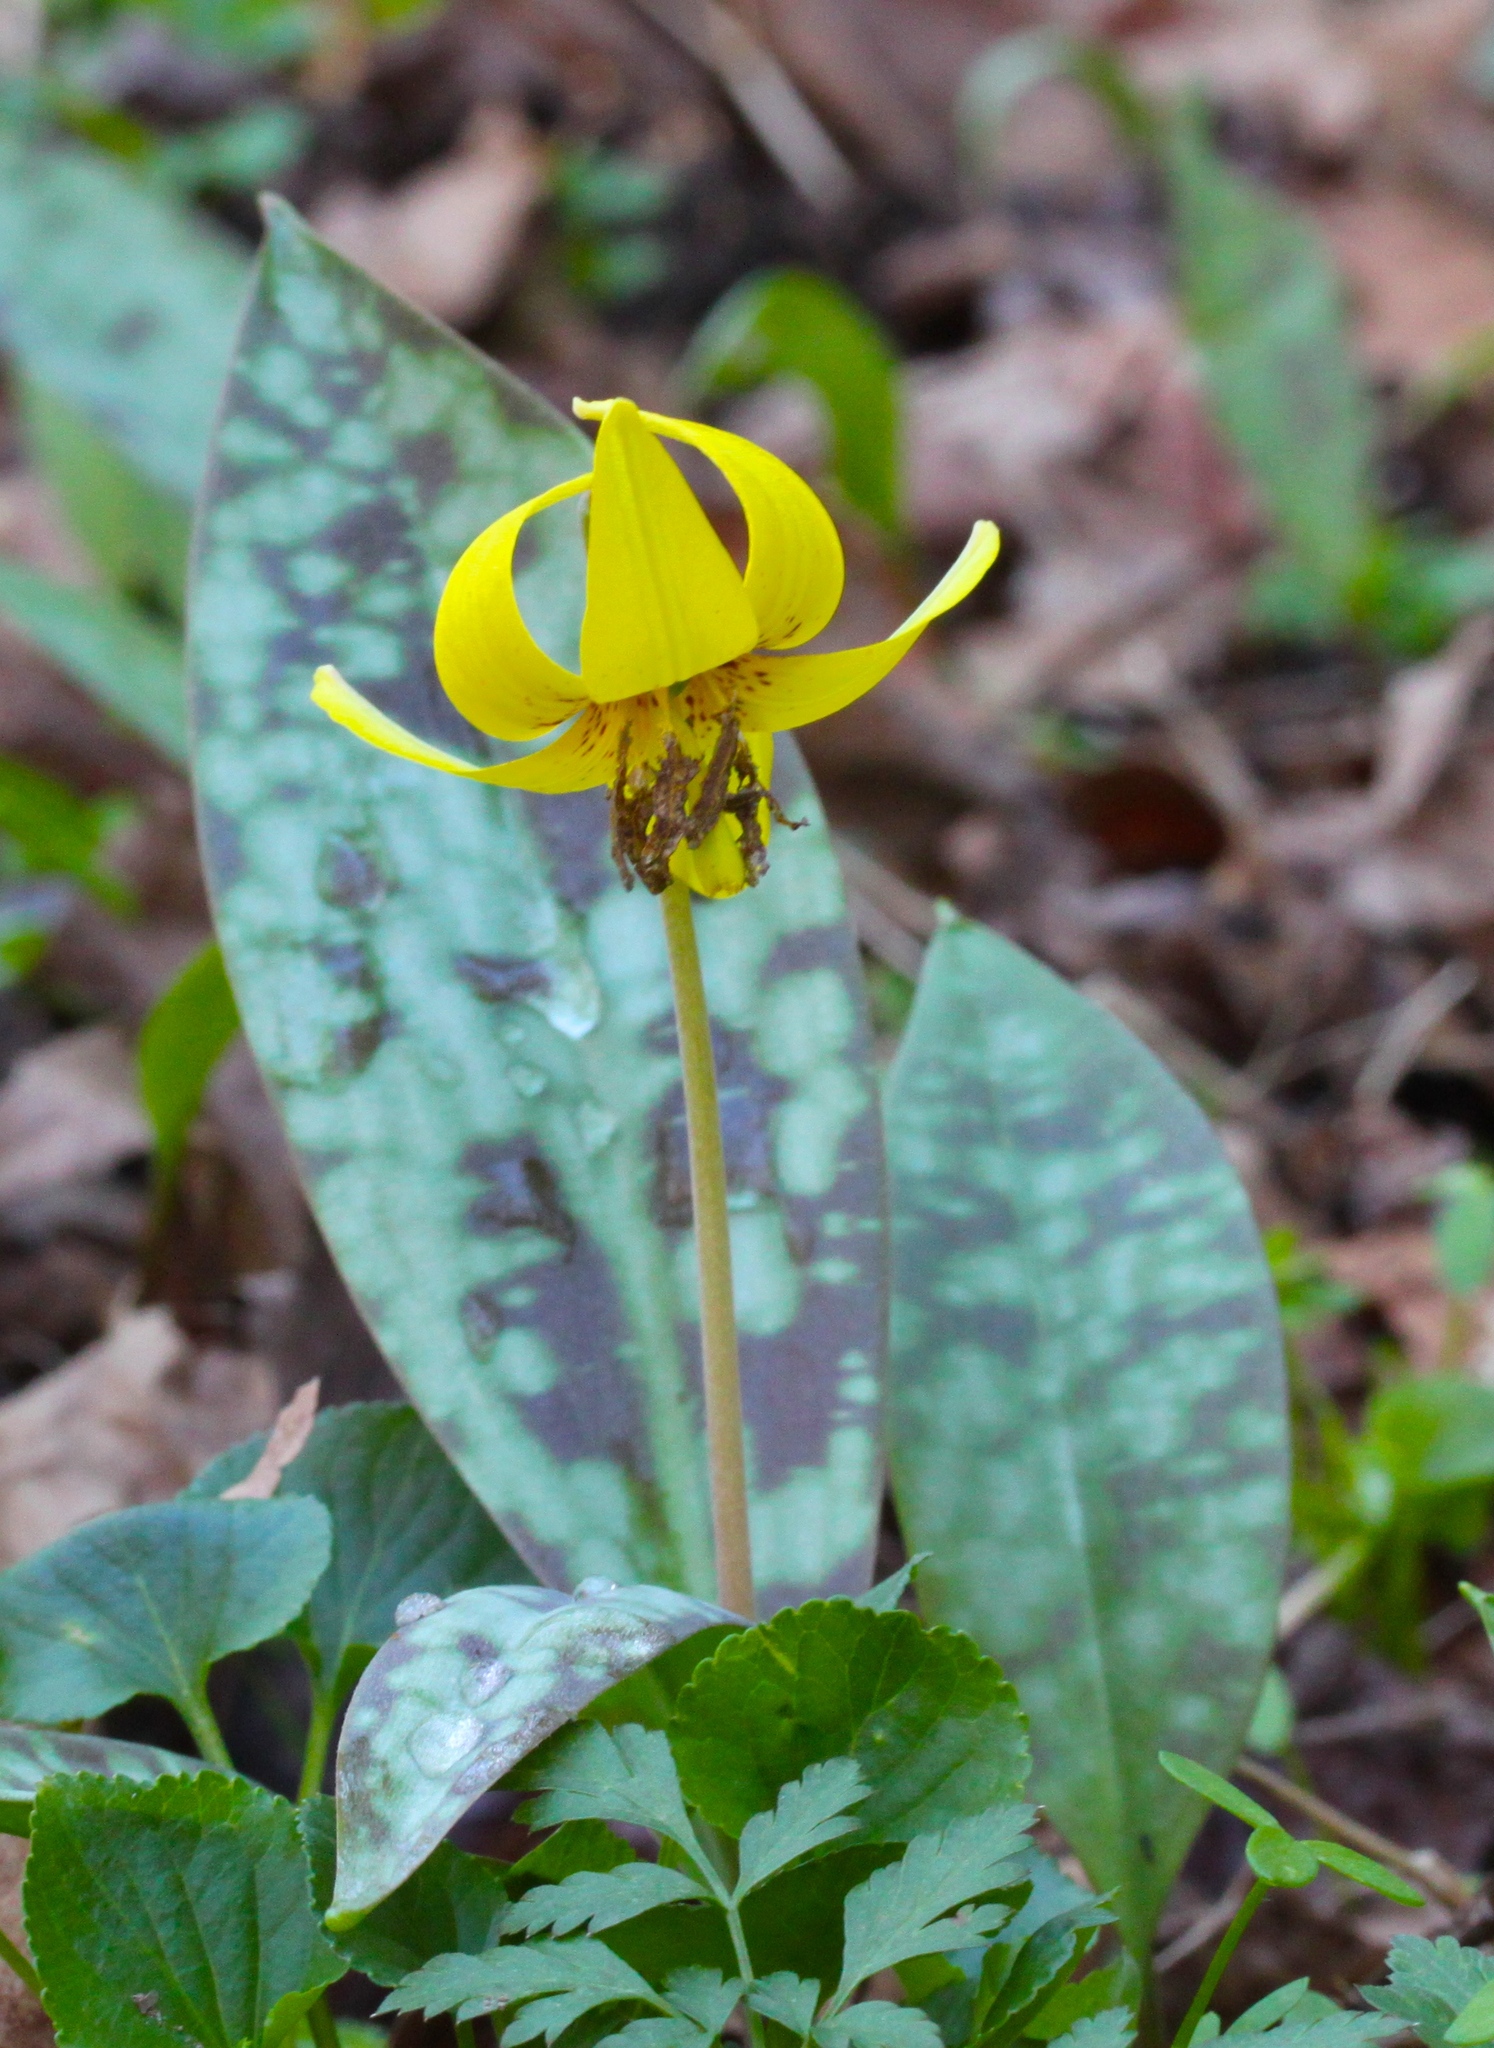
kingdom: Plantae
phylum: Tracheophyta
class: Liliopsida
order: Liliales
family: Liliaceae
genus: Erythronium
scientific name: Erythronium americanum
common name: Yellow adder's-tongue
